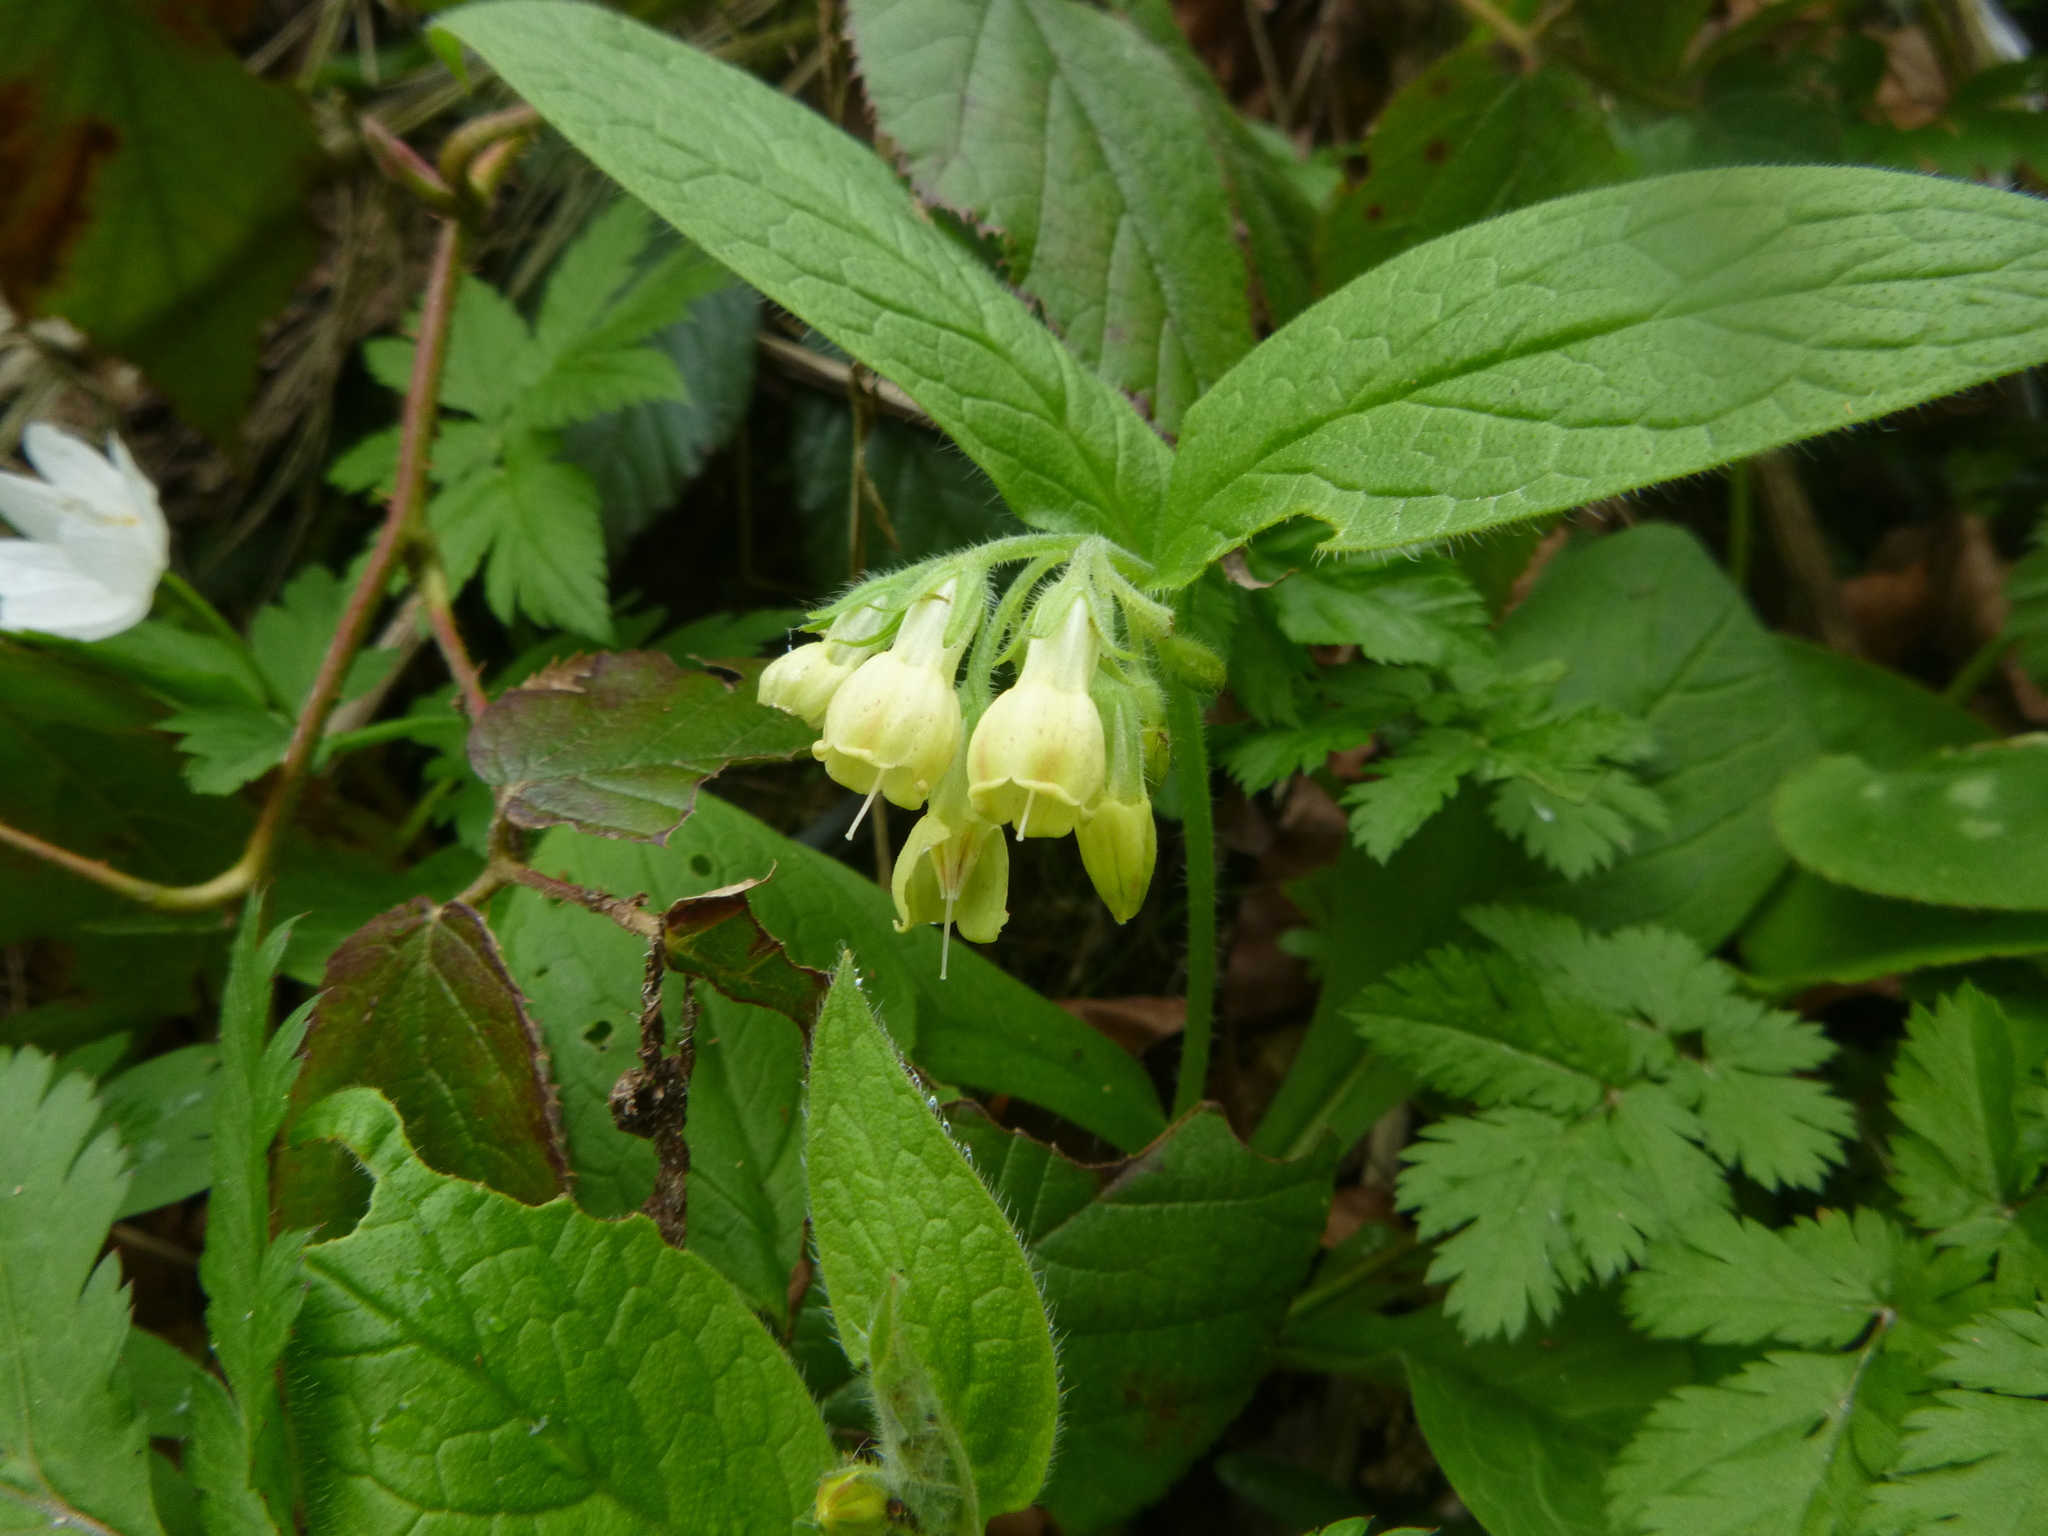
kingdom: Plantae
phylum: Tracheophyta
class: Magnoliopsida
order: Boraginales
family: Boraginaceae
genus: Symphytum
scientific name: Symphytum tuberosum
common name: Tuberous comfrey
